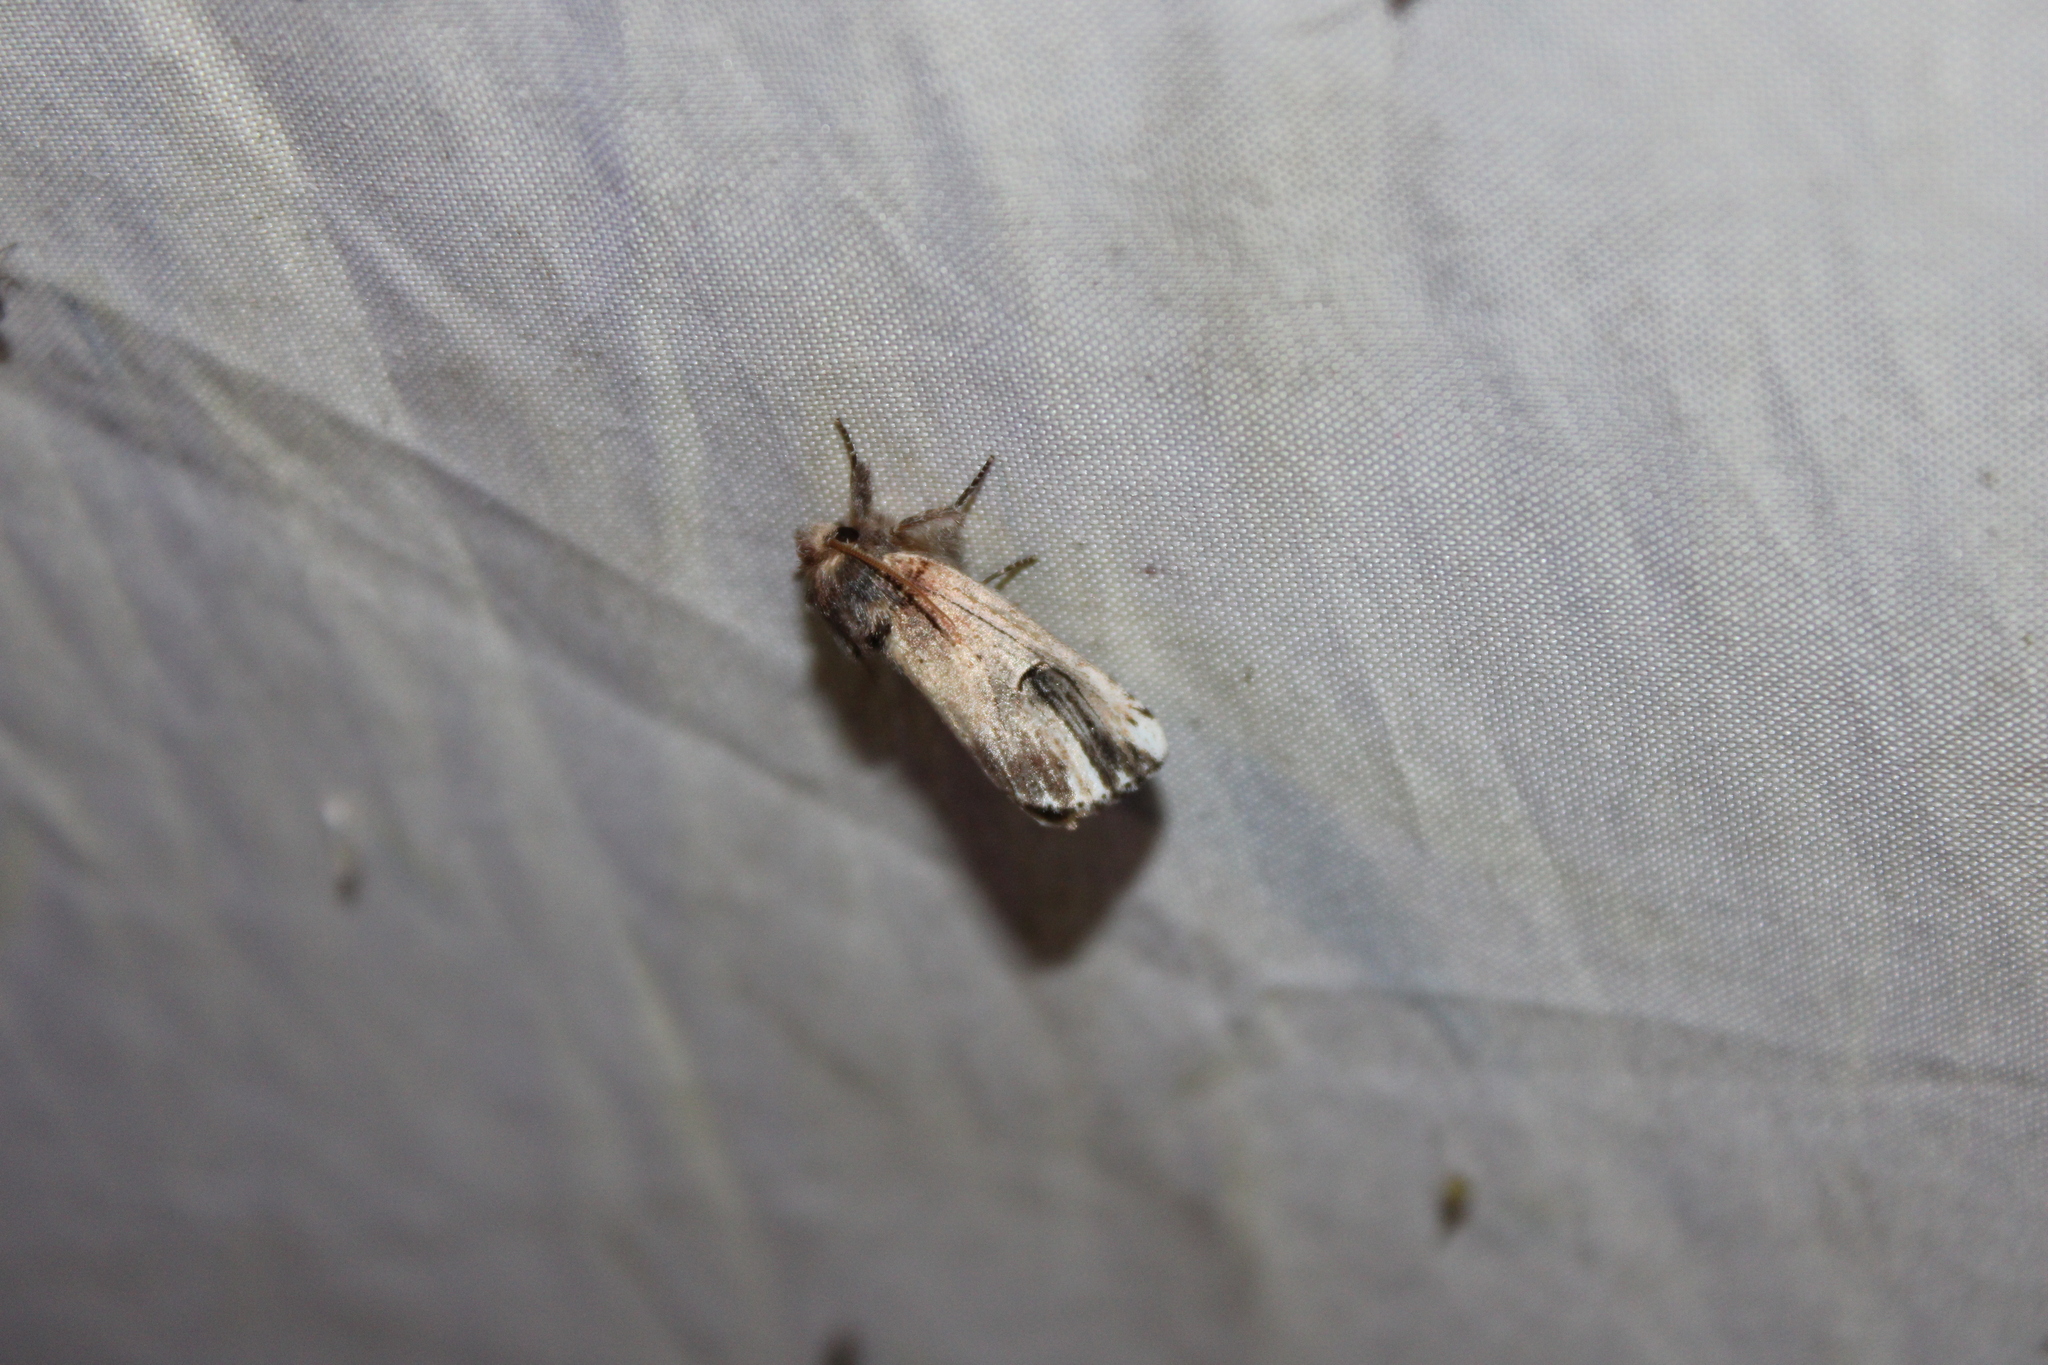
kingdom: Animalia
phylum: Arthropoda
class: Insecta
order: Lepidoptera
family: Notodontidae
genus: Schizura
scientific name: Schizura badia
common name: Chestnut schizura
